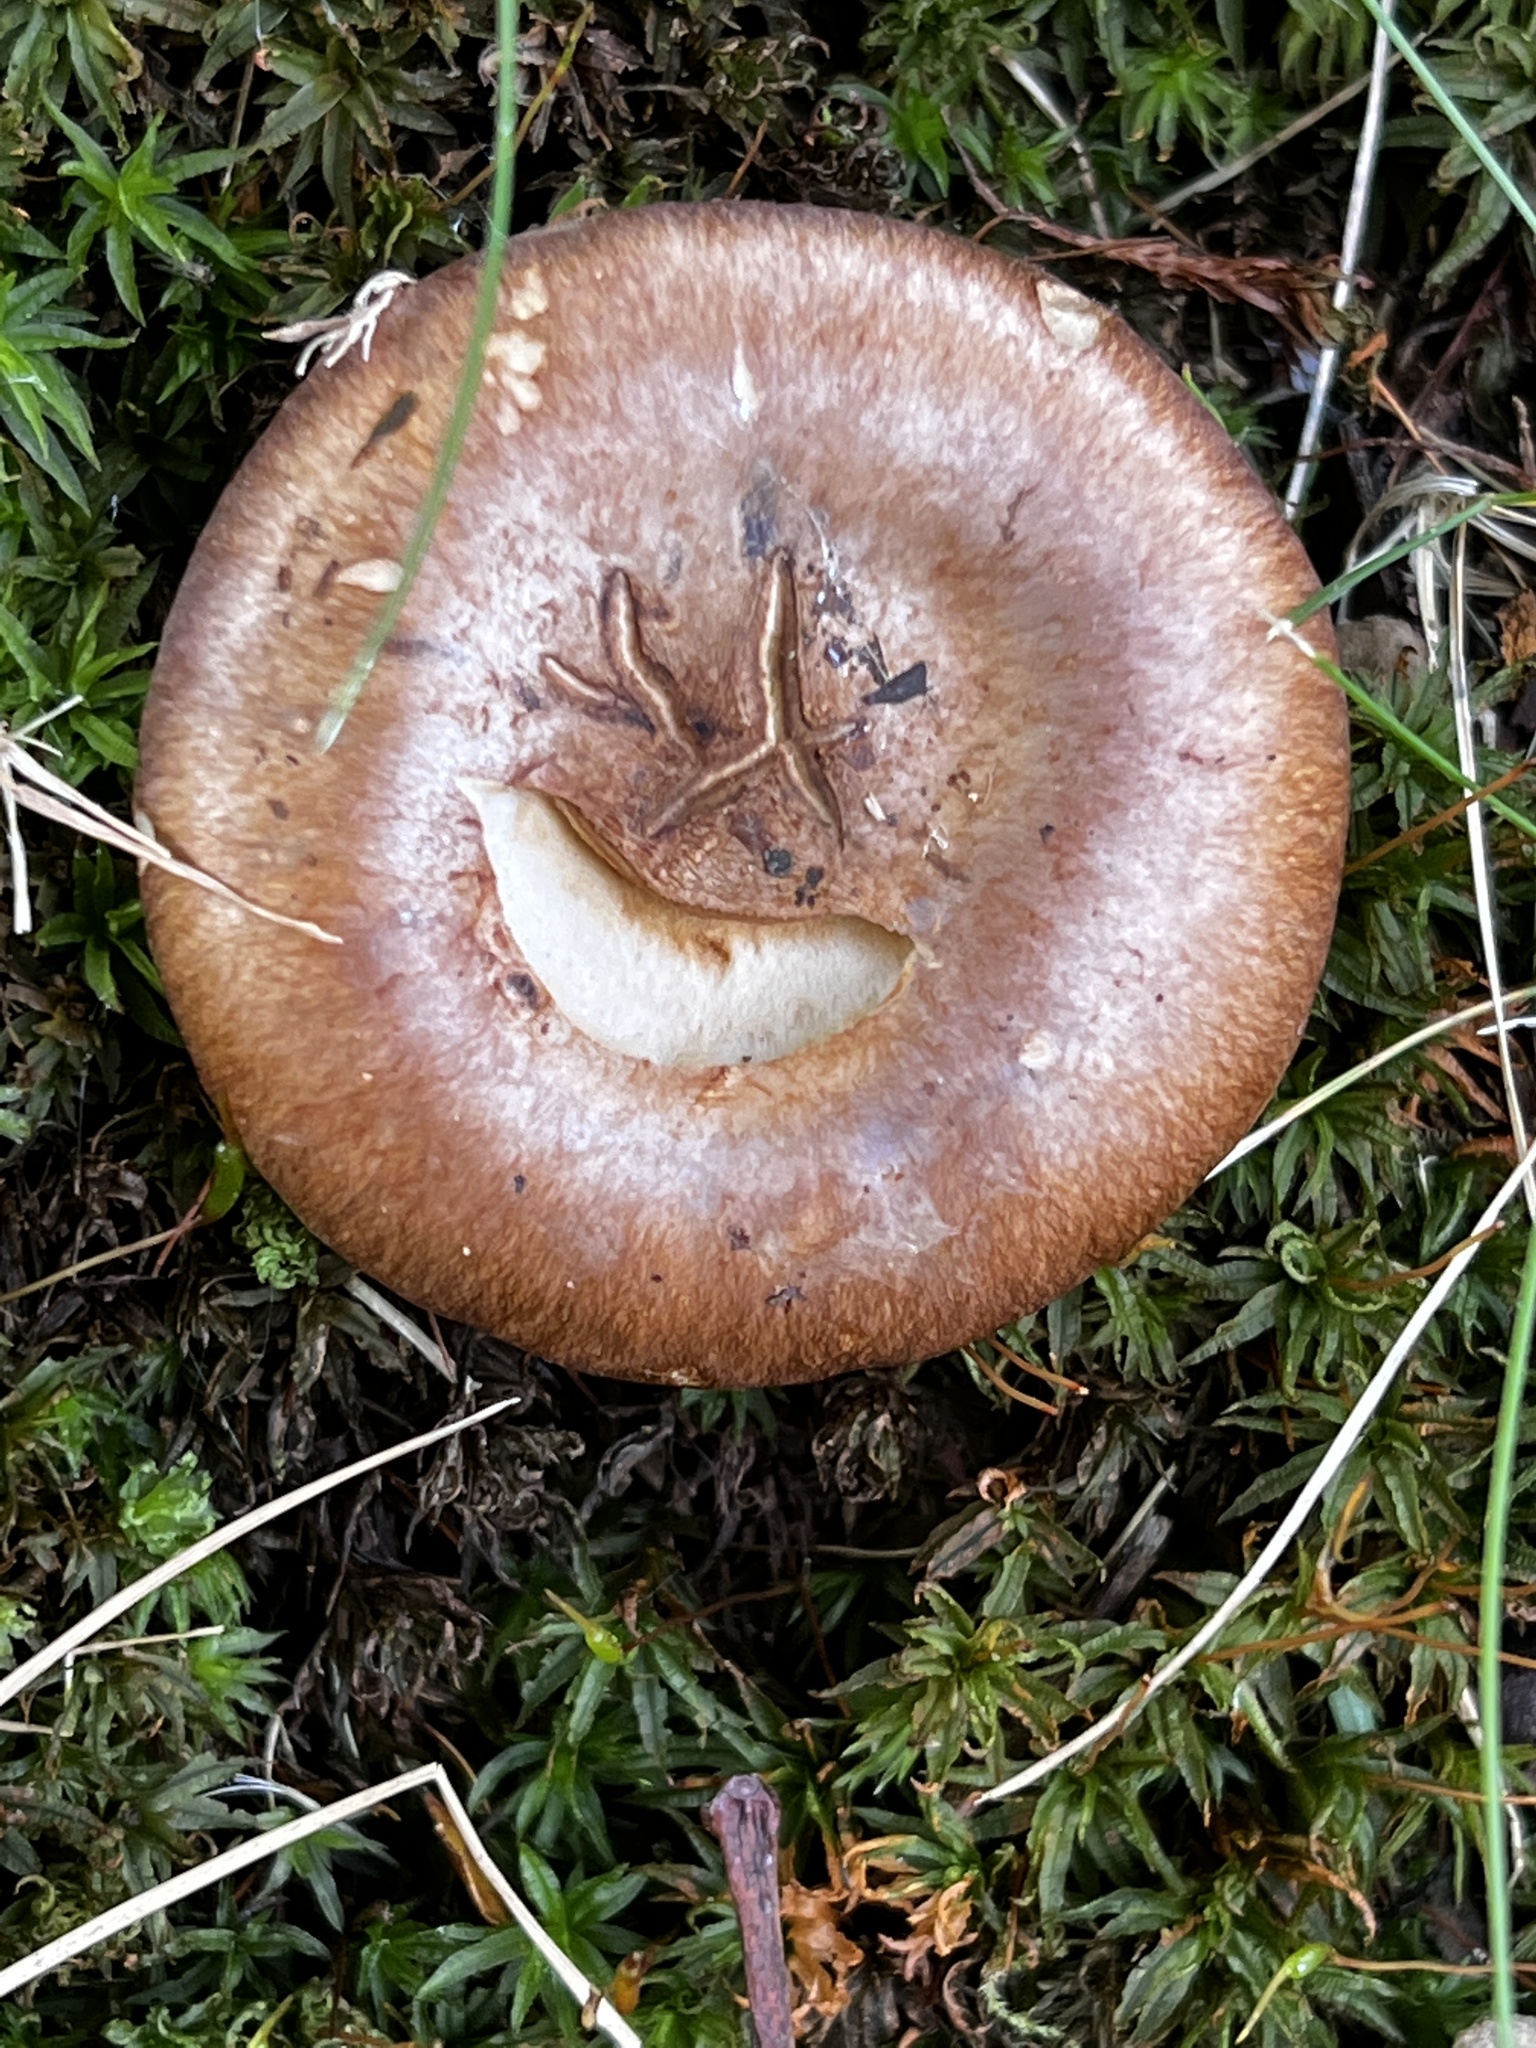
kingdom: Fungi
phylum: Basidiomycota
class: Agaricomycetes
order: Agaricales
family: Cortinariaceae
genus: Phlegmacium
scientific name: Phlegmacium balteatocumatile
